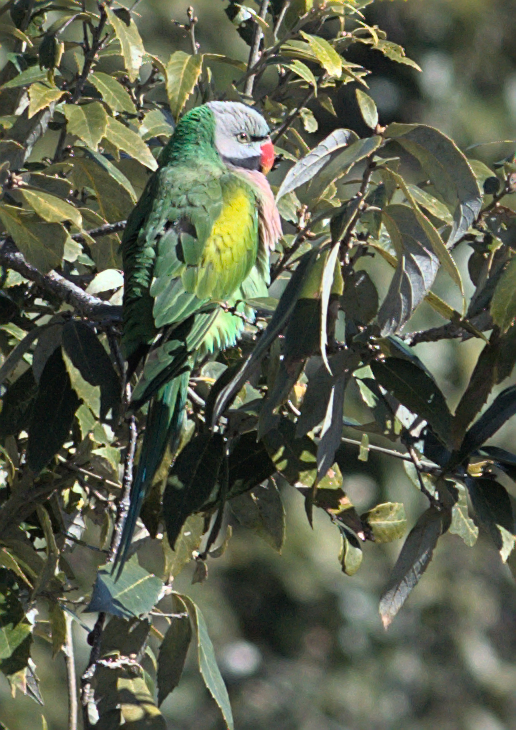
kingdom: Animalia
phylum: Chordata
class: Aves
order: Psittaciformes
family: Psittacidae
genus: Psittacula
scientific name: Psittacula alexandri
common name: Red-breasted parakeet
